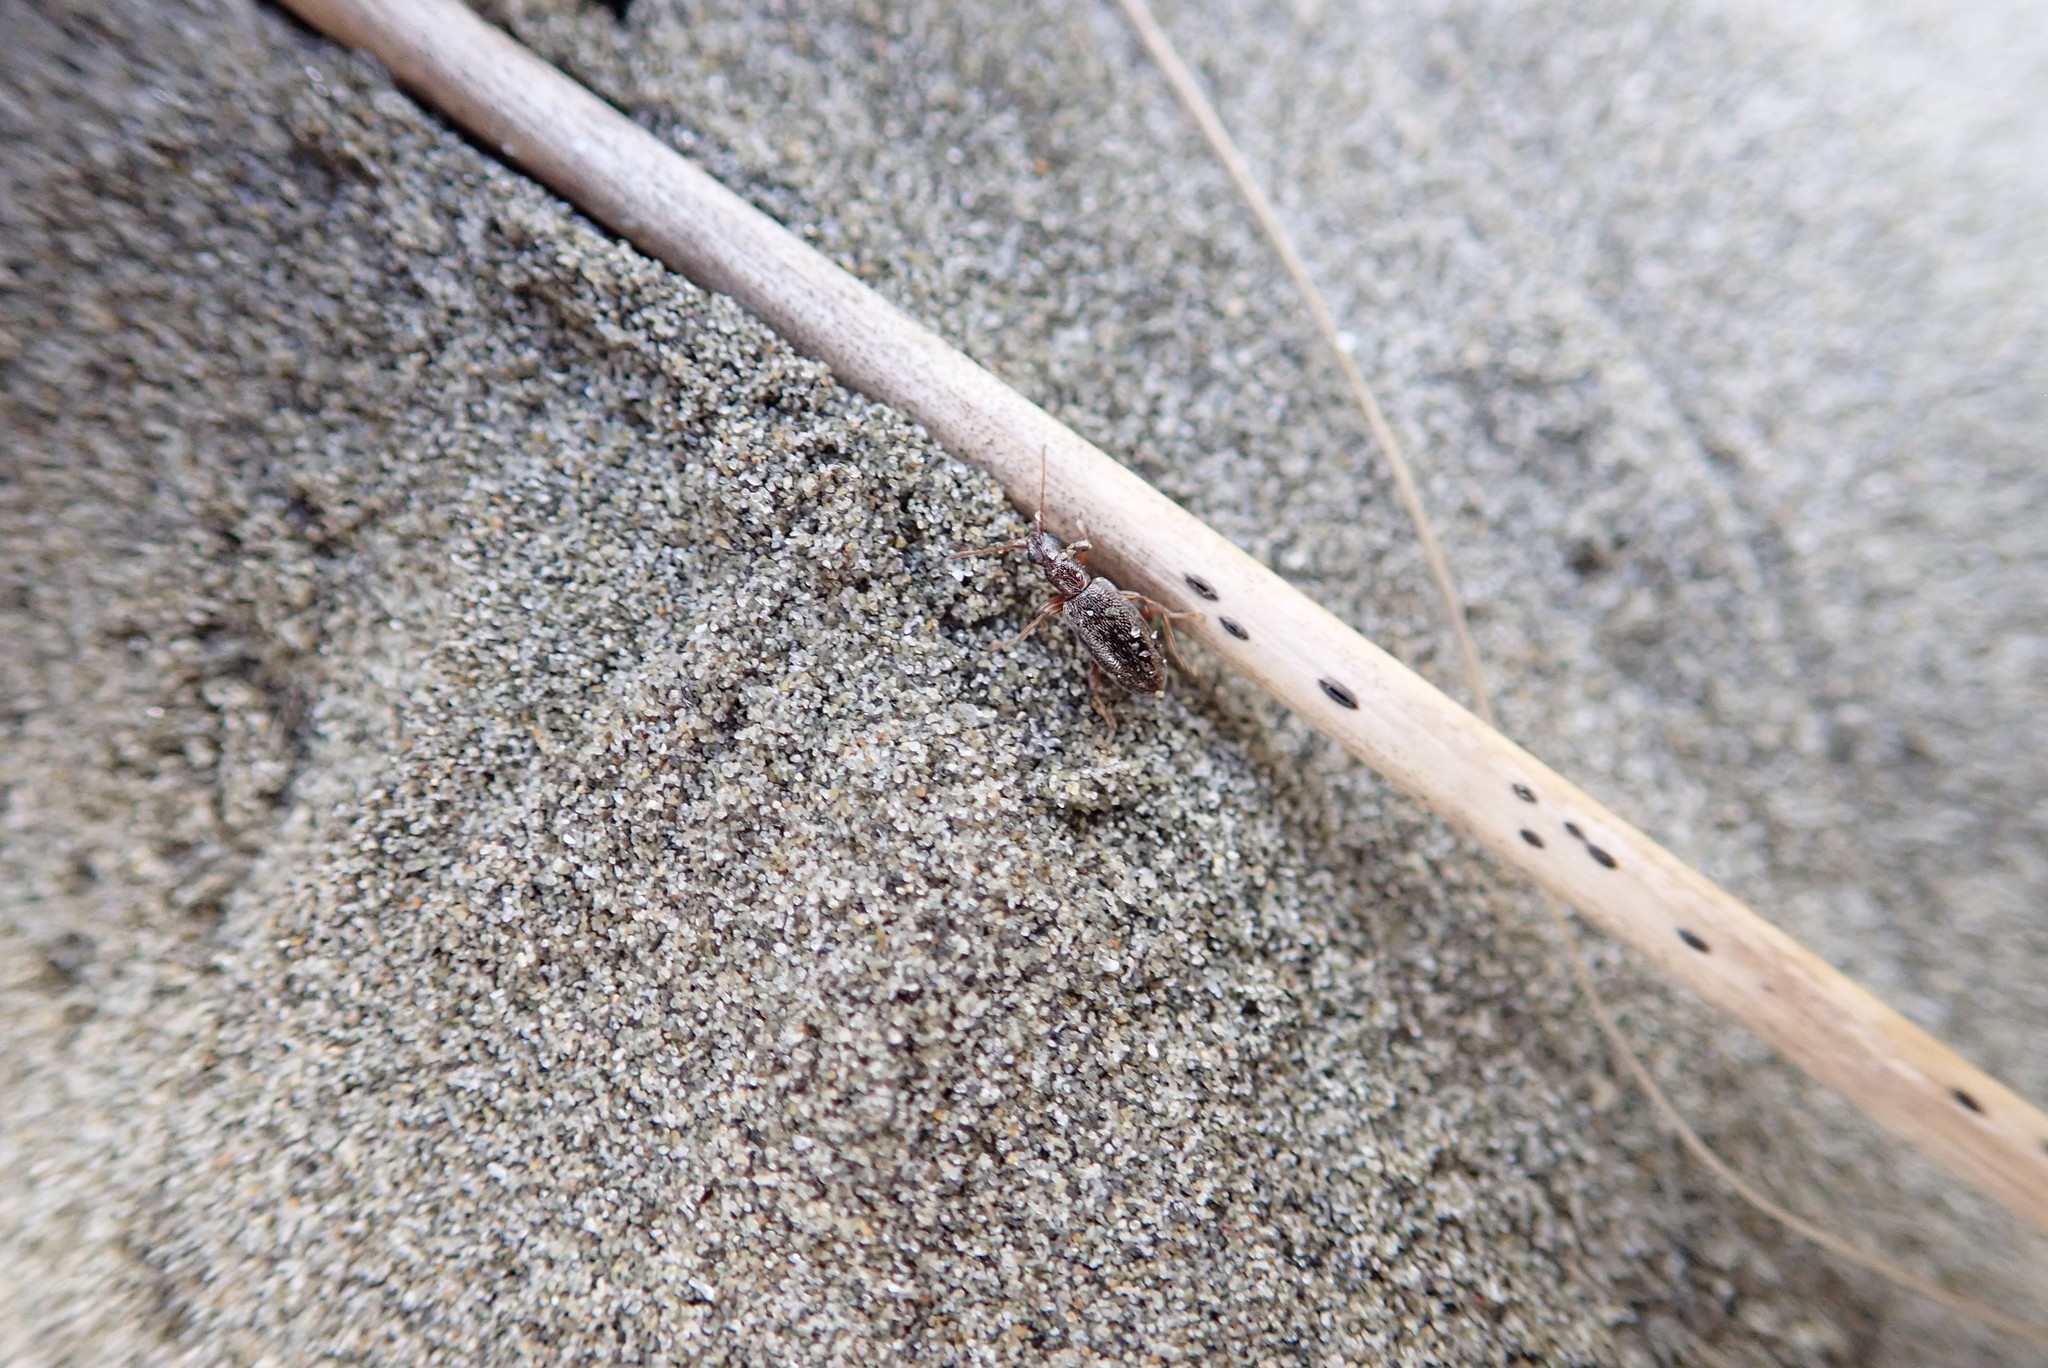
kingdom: Animalia
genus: Lagrioda
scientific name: Lagrioda brounii
